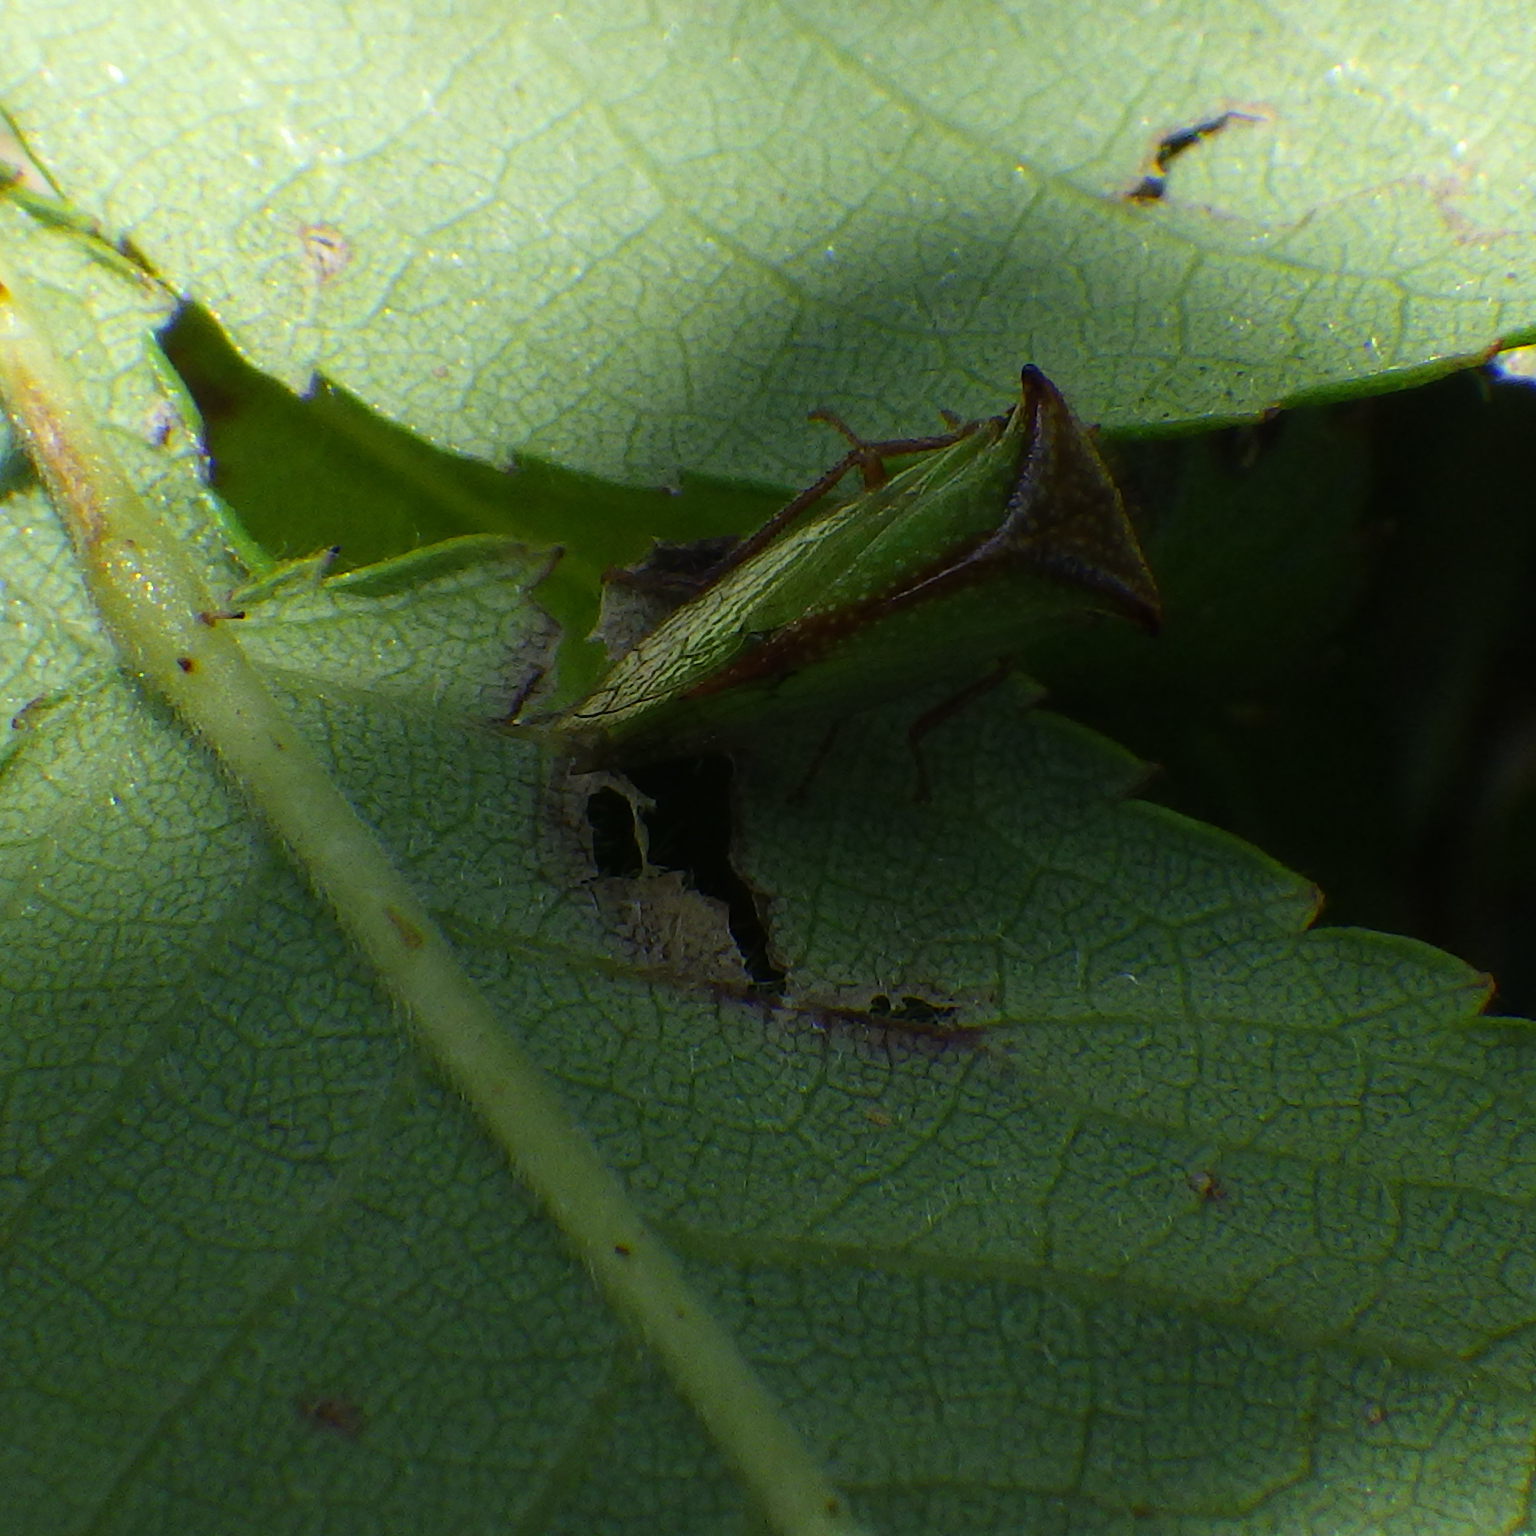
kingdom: Animalia
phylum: Arthropoda
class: Insecta
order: Hemiptera
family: Membracidae
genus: Stictocephala
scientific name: Stictocephala basalis
